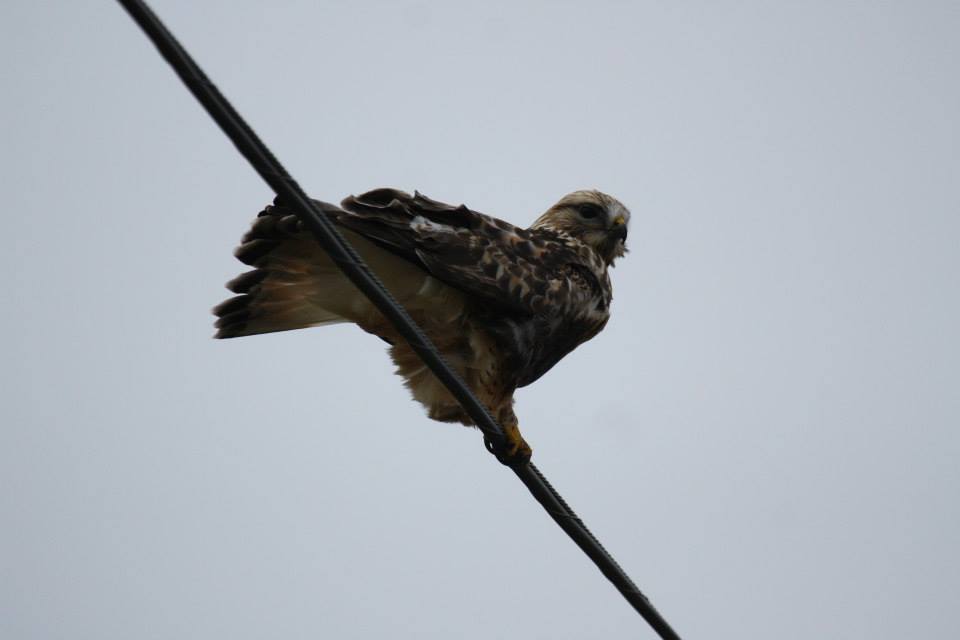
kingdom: Animalia
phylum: Chordata
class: Aves
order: Accipitriformes
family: Accipitridae
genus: Buteo
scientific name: Buteo lagopus
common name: Rough-legged buzzard
